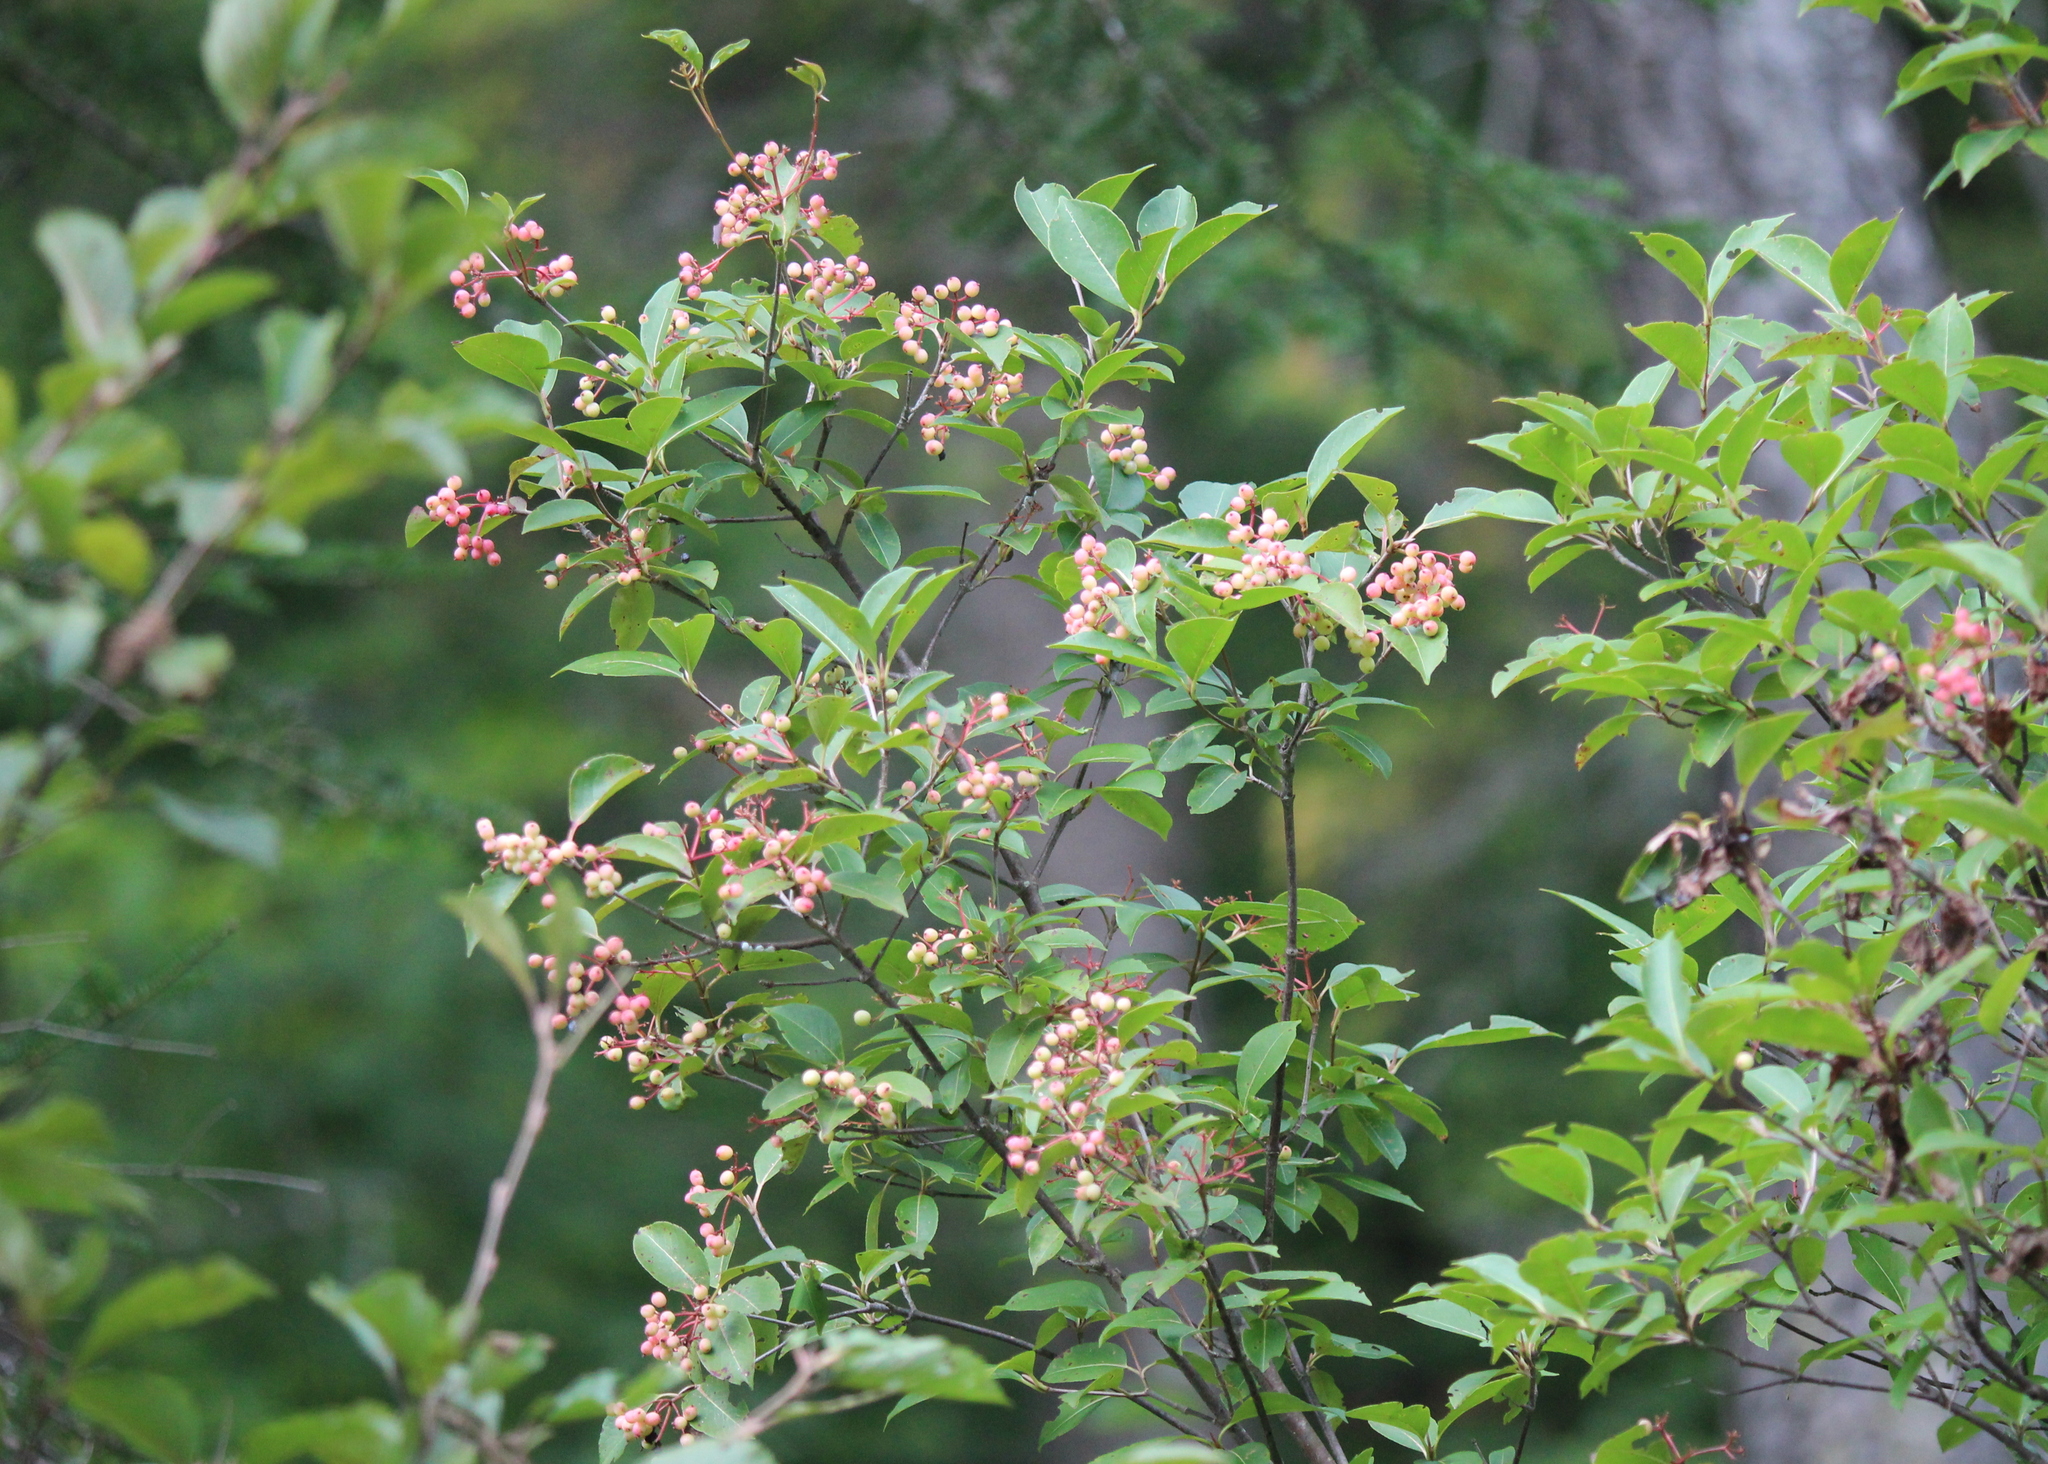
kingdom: Plantae
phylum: Tracheophyta
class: Magnoliopsida
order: Dipsacales
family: Viburnaceae
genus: Viburnum
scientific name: Viburnum cassinoides
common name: Swamp haw
